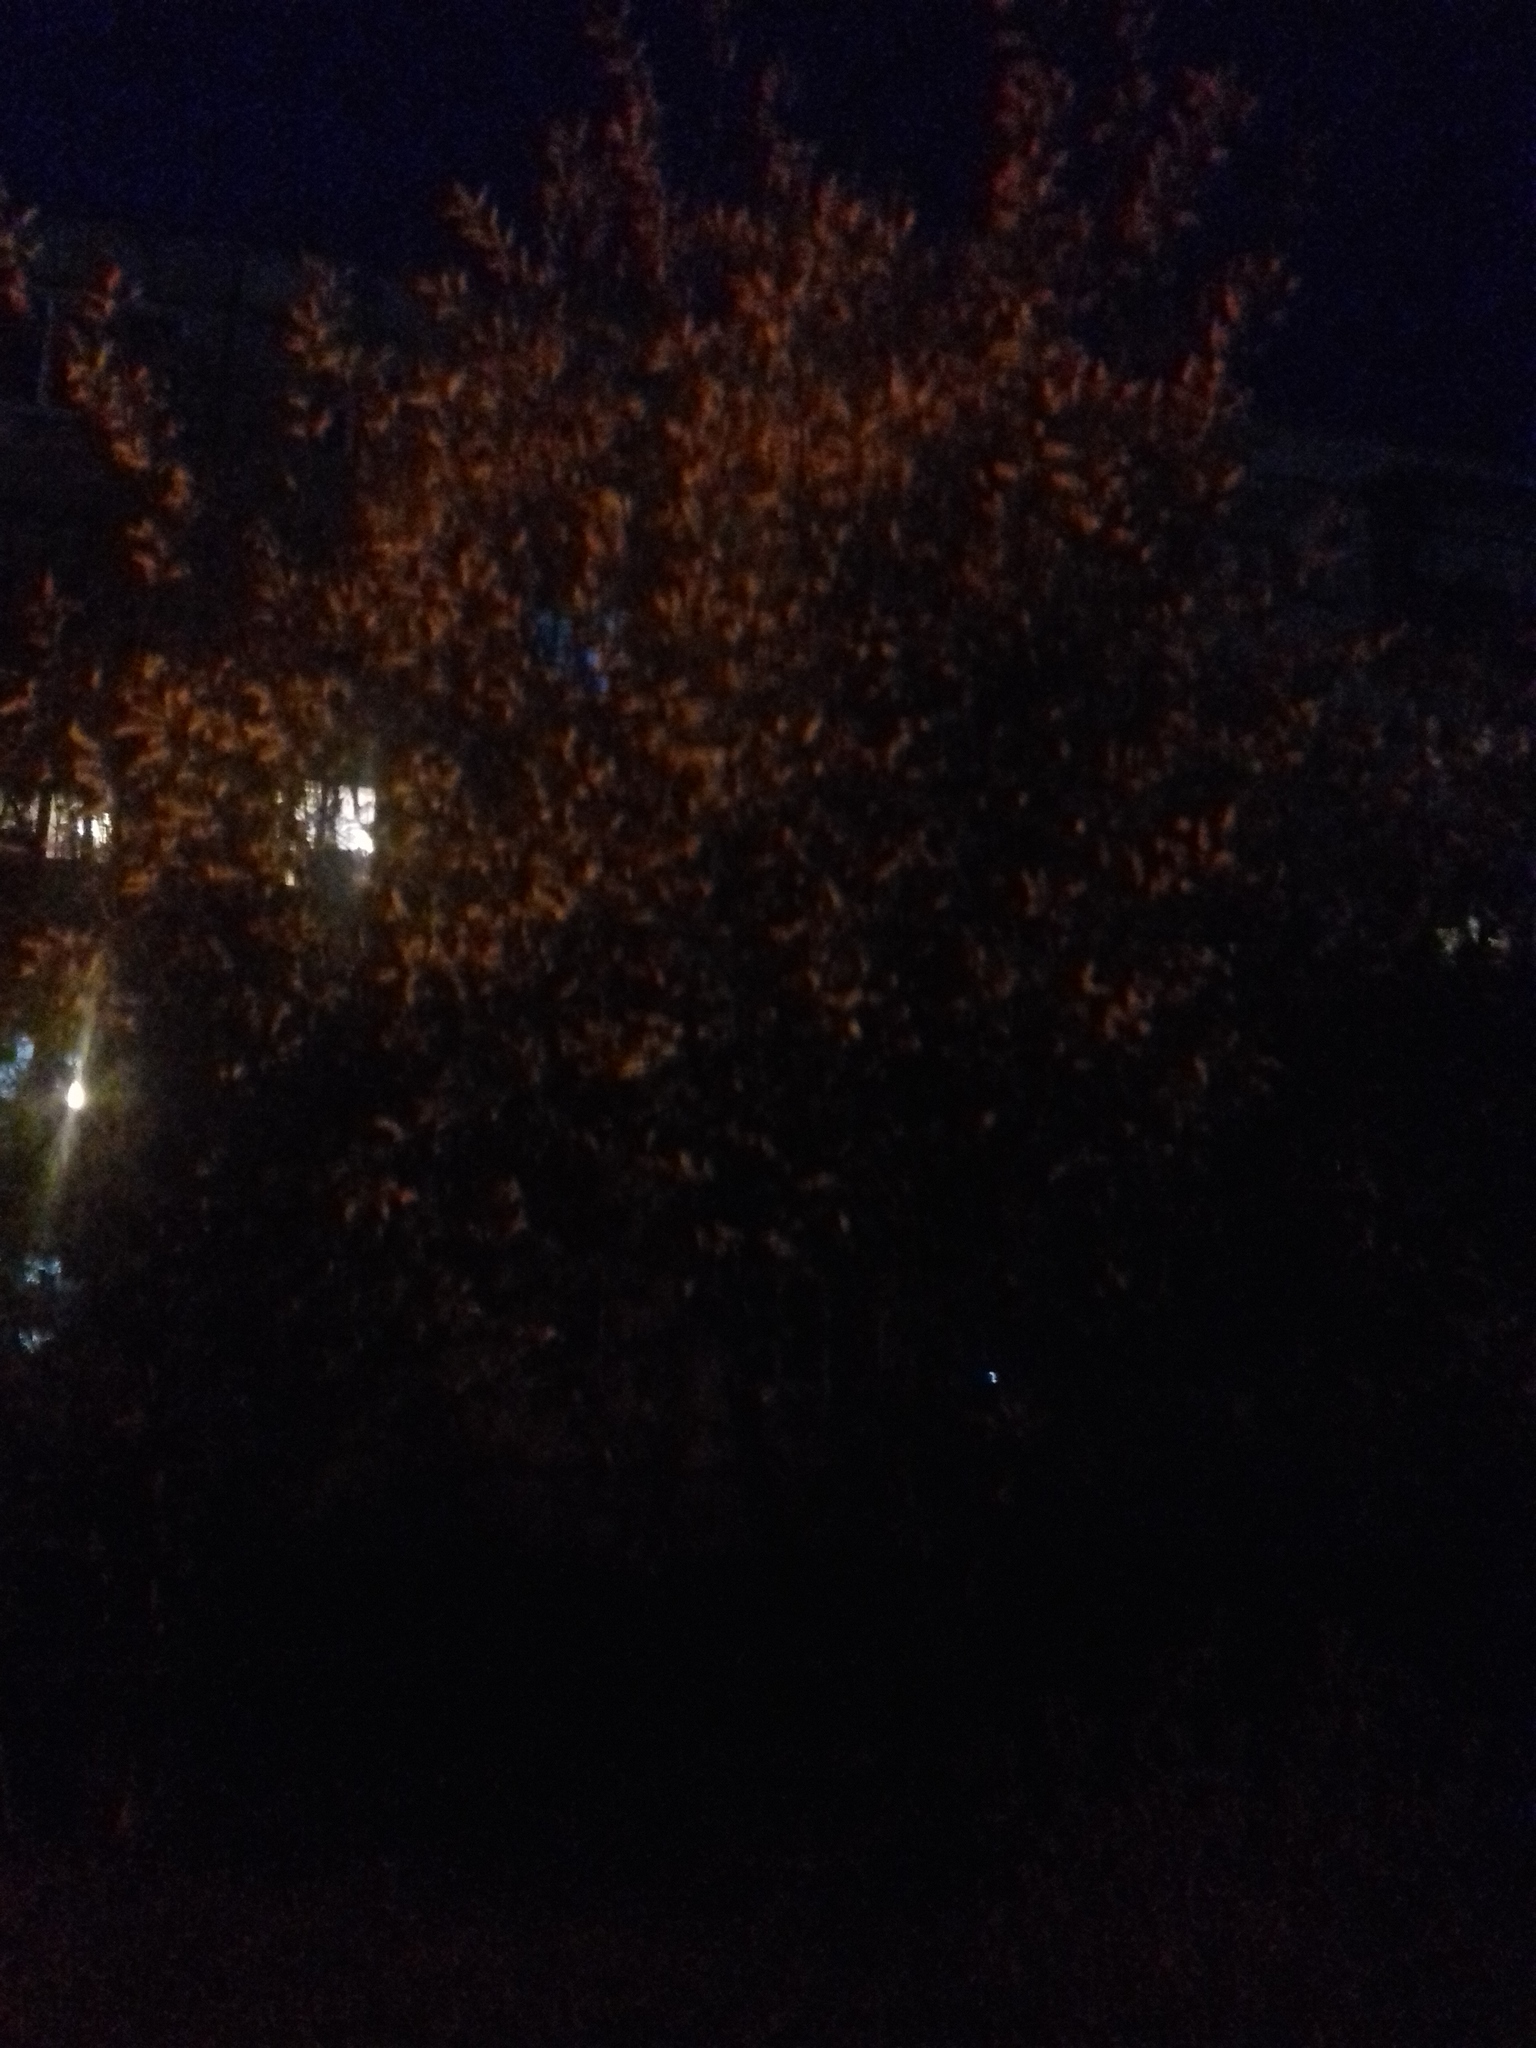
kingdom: Plantae
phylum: Tracheophyta
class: Magnoliopsida
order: Rosales
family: Rosaceae
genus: Prunus
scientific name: Prunus padus
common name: Bird cherry
